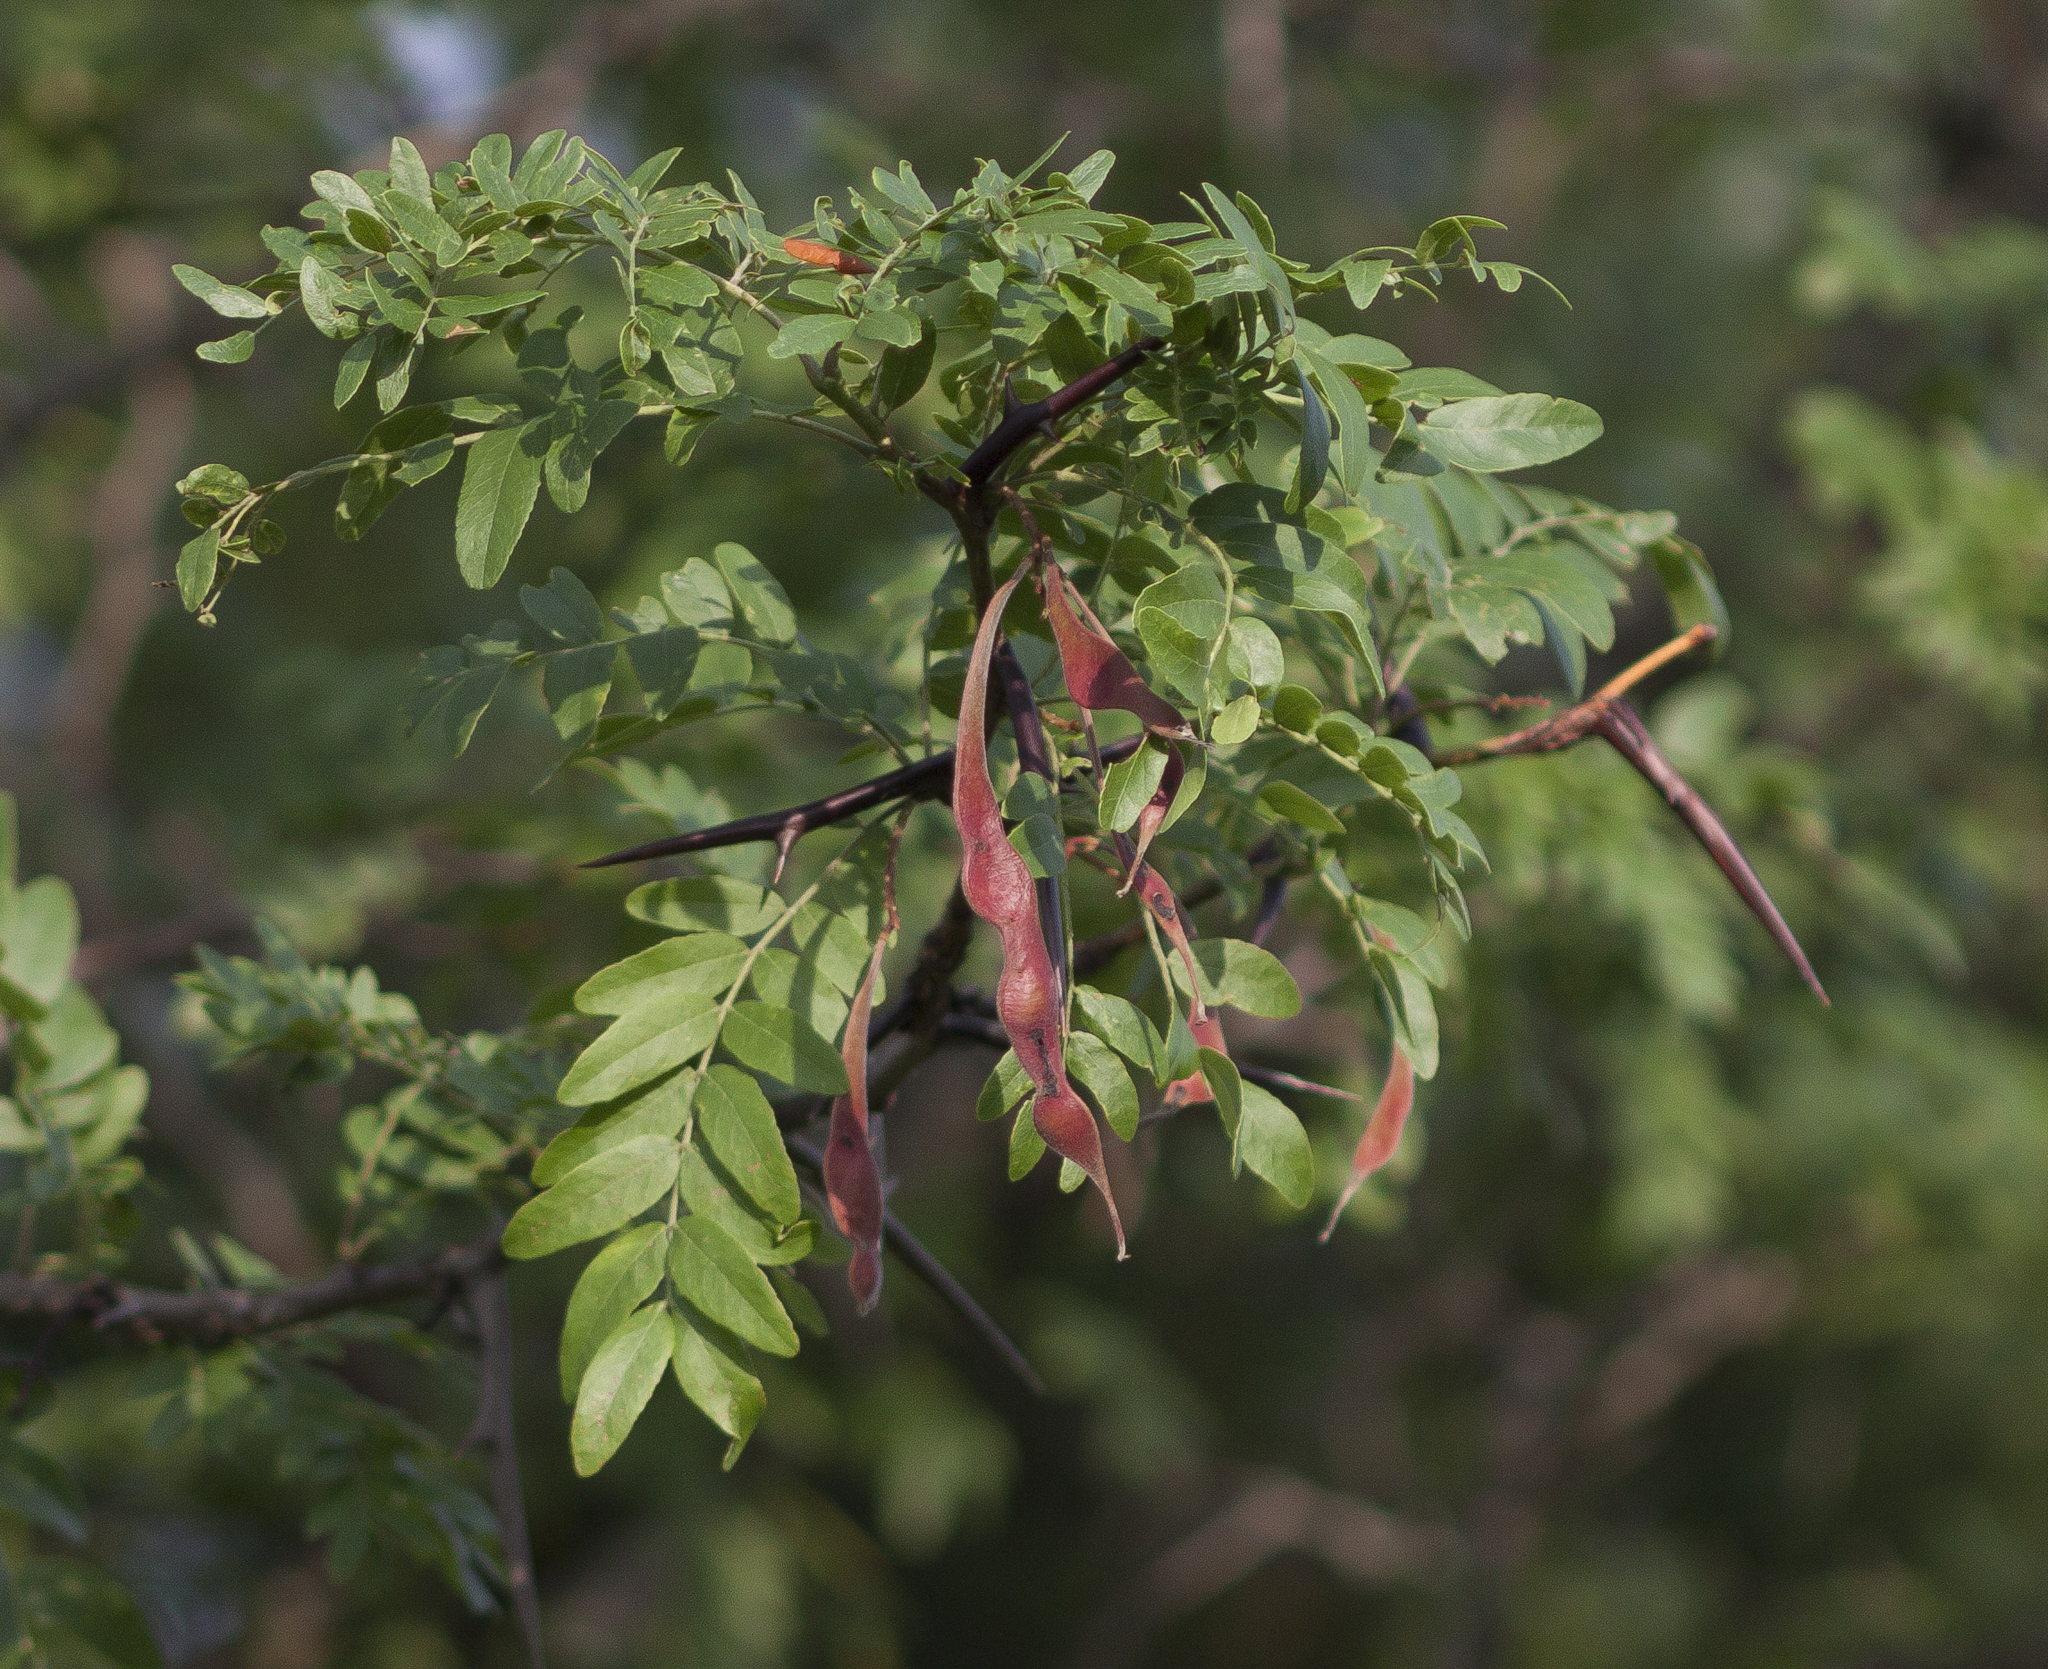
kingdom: Plantae
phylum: Tracheophyta
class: Magnoliopsida
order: Fabales
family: Fabaceae
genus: Gleditsia
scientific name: Gleditsia triacanthos
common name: Common honeylocust
